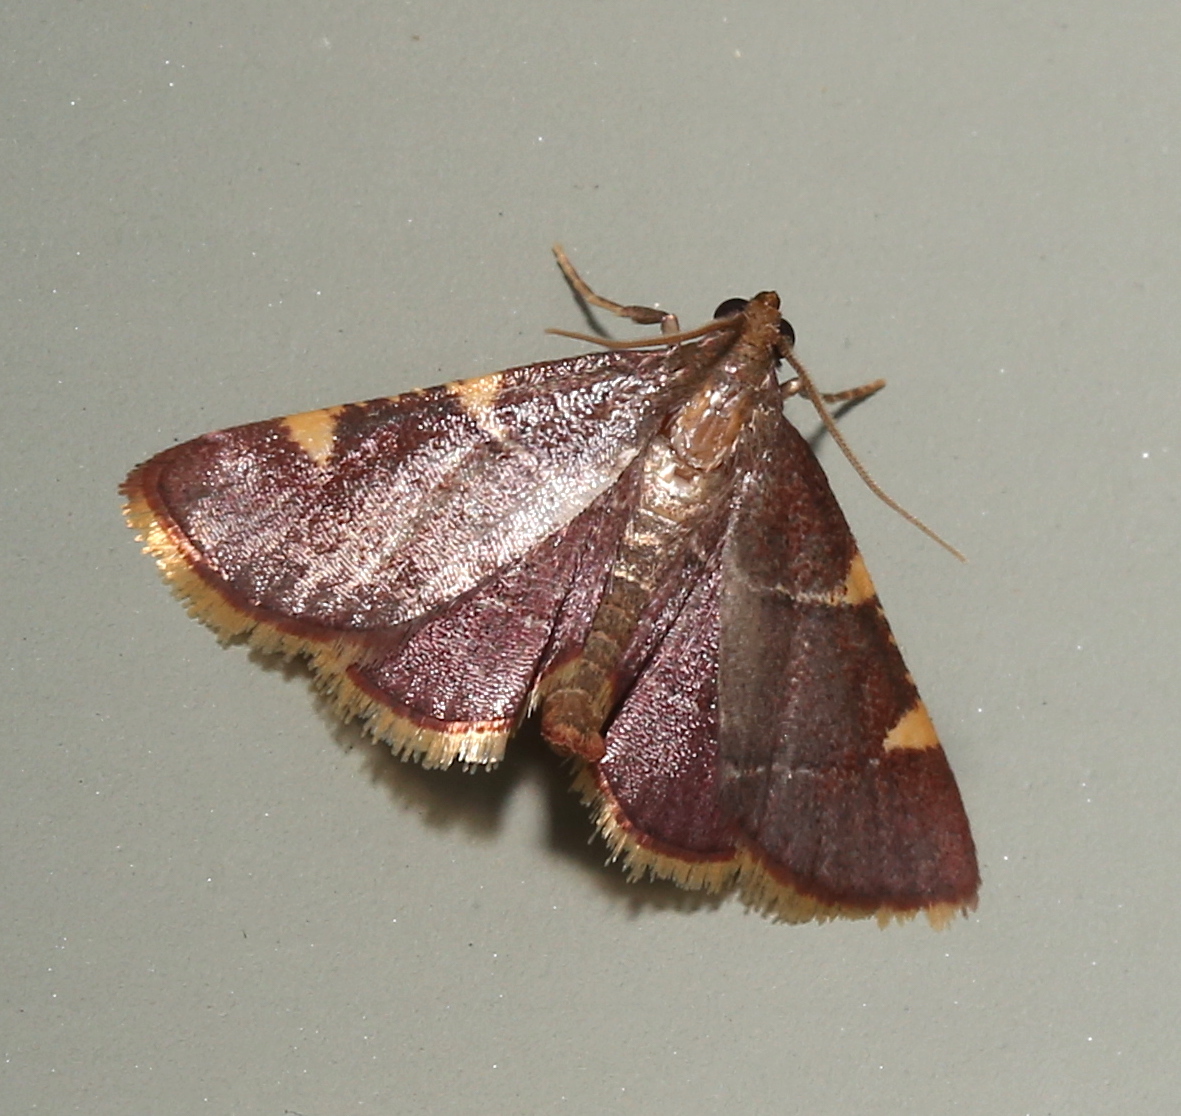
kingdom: Animalia
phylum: Arthropoda
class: Insecta
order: Lepidoptera
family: Pyralidae
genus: Hypsopygia
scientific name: Hypsopygia olinalis
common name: Yellow-fringed dolichomia moth
